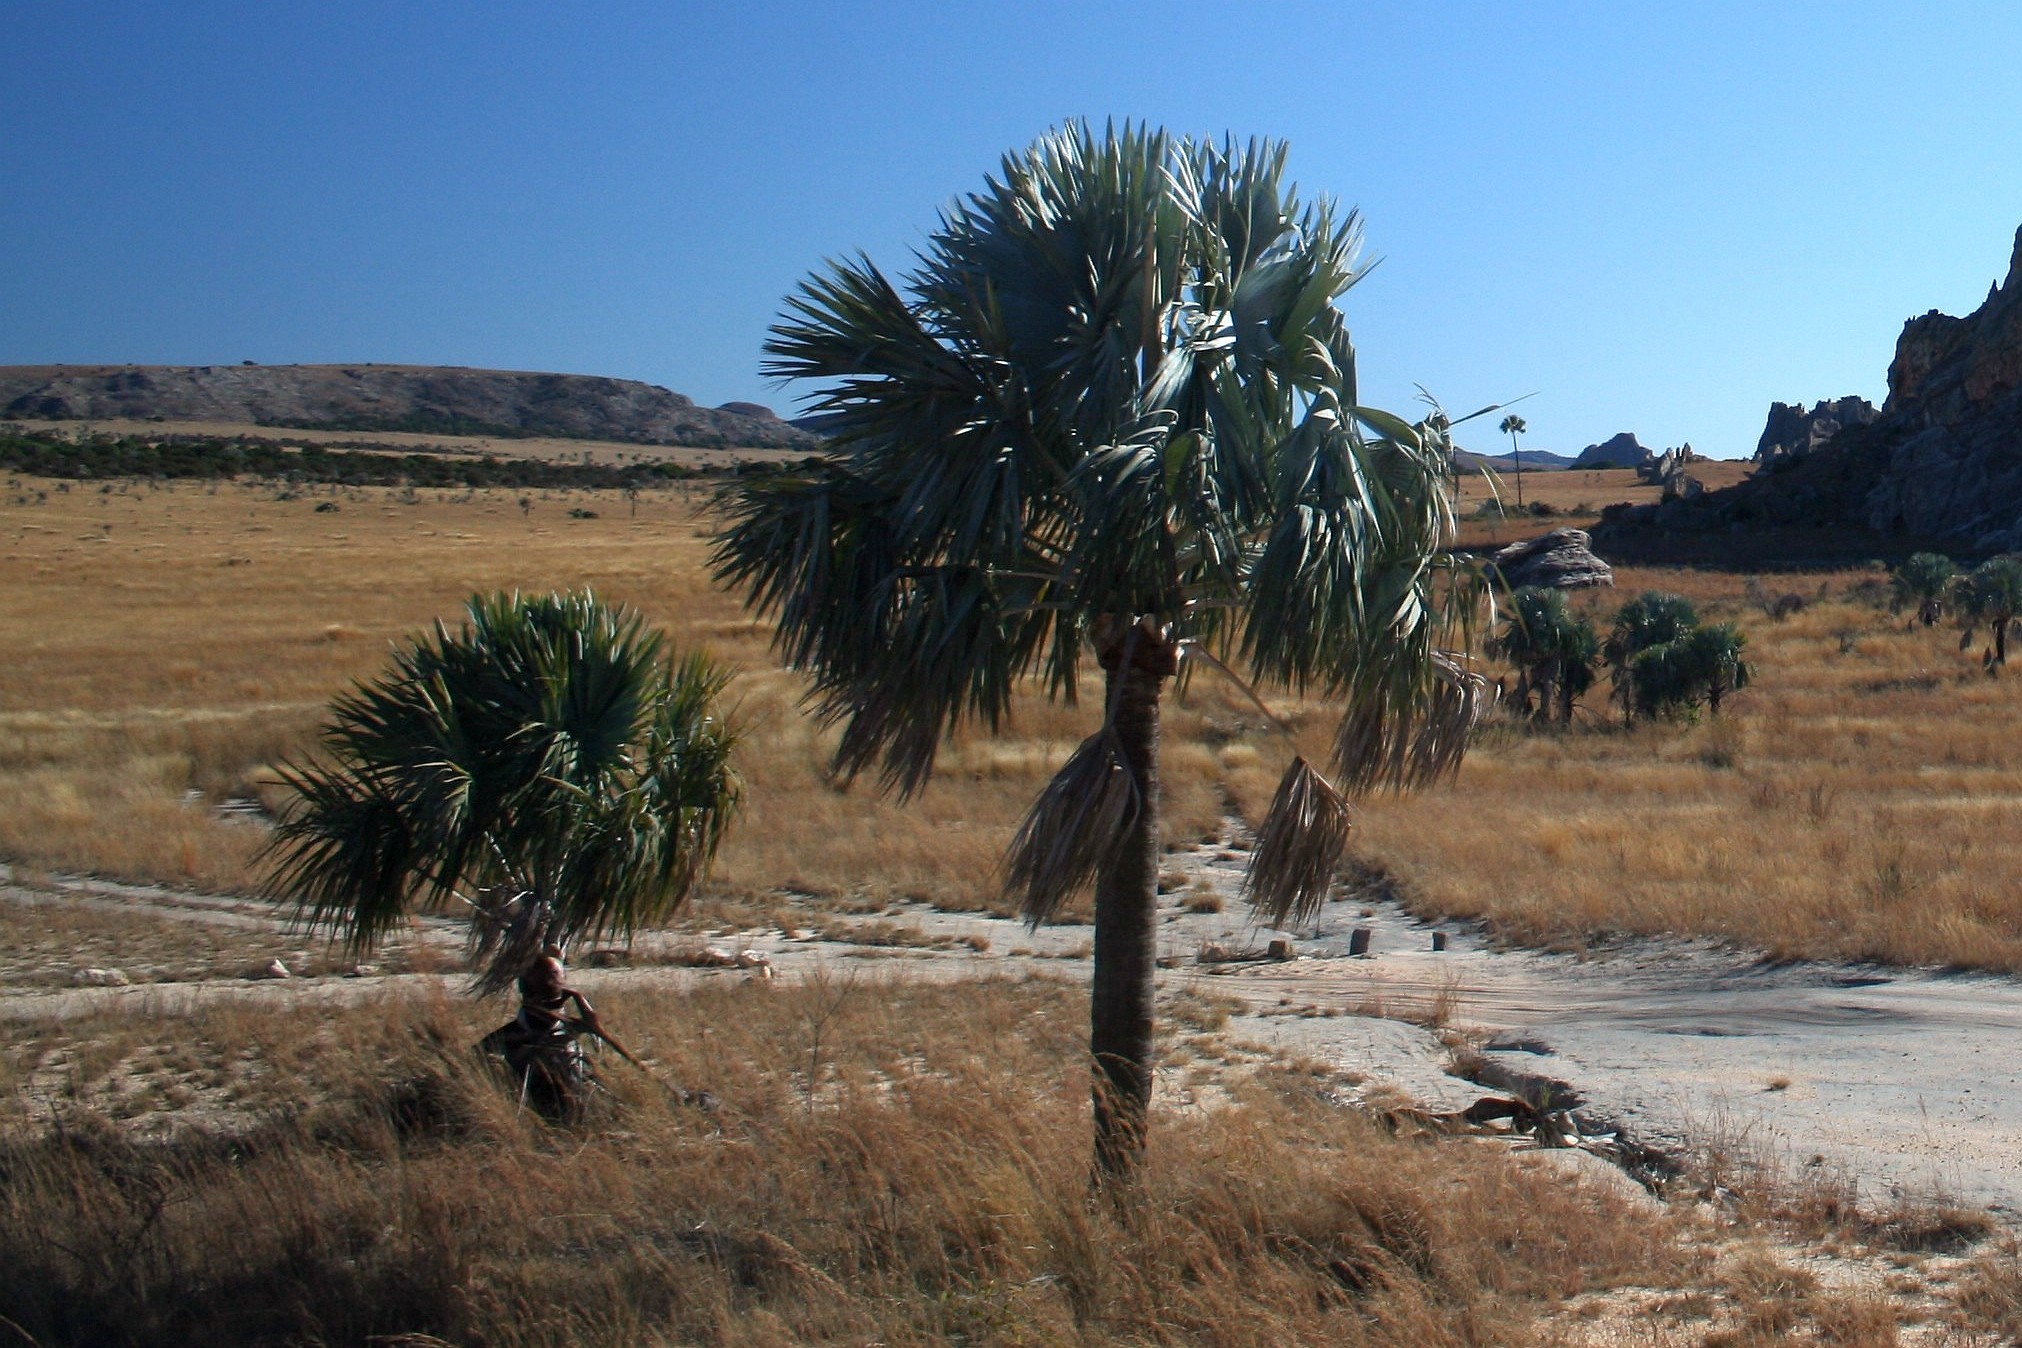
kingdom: Plantae
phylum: Tracheophyta
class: Liliopsida
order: Arecales
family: Arecaceae
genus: Bismarckia
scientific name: Bismarckia nobilis
